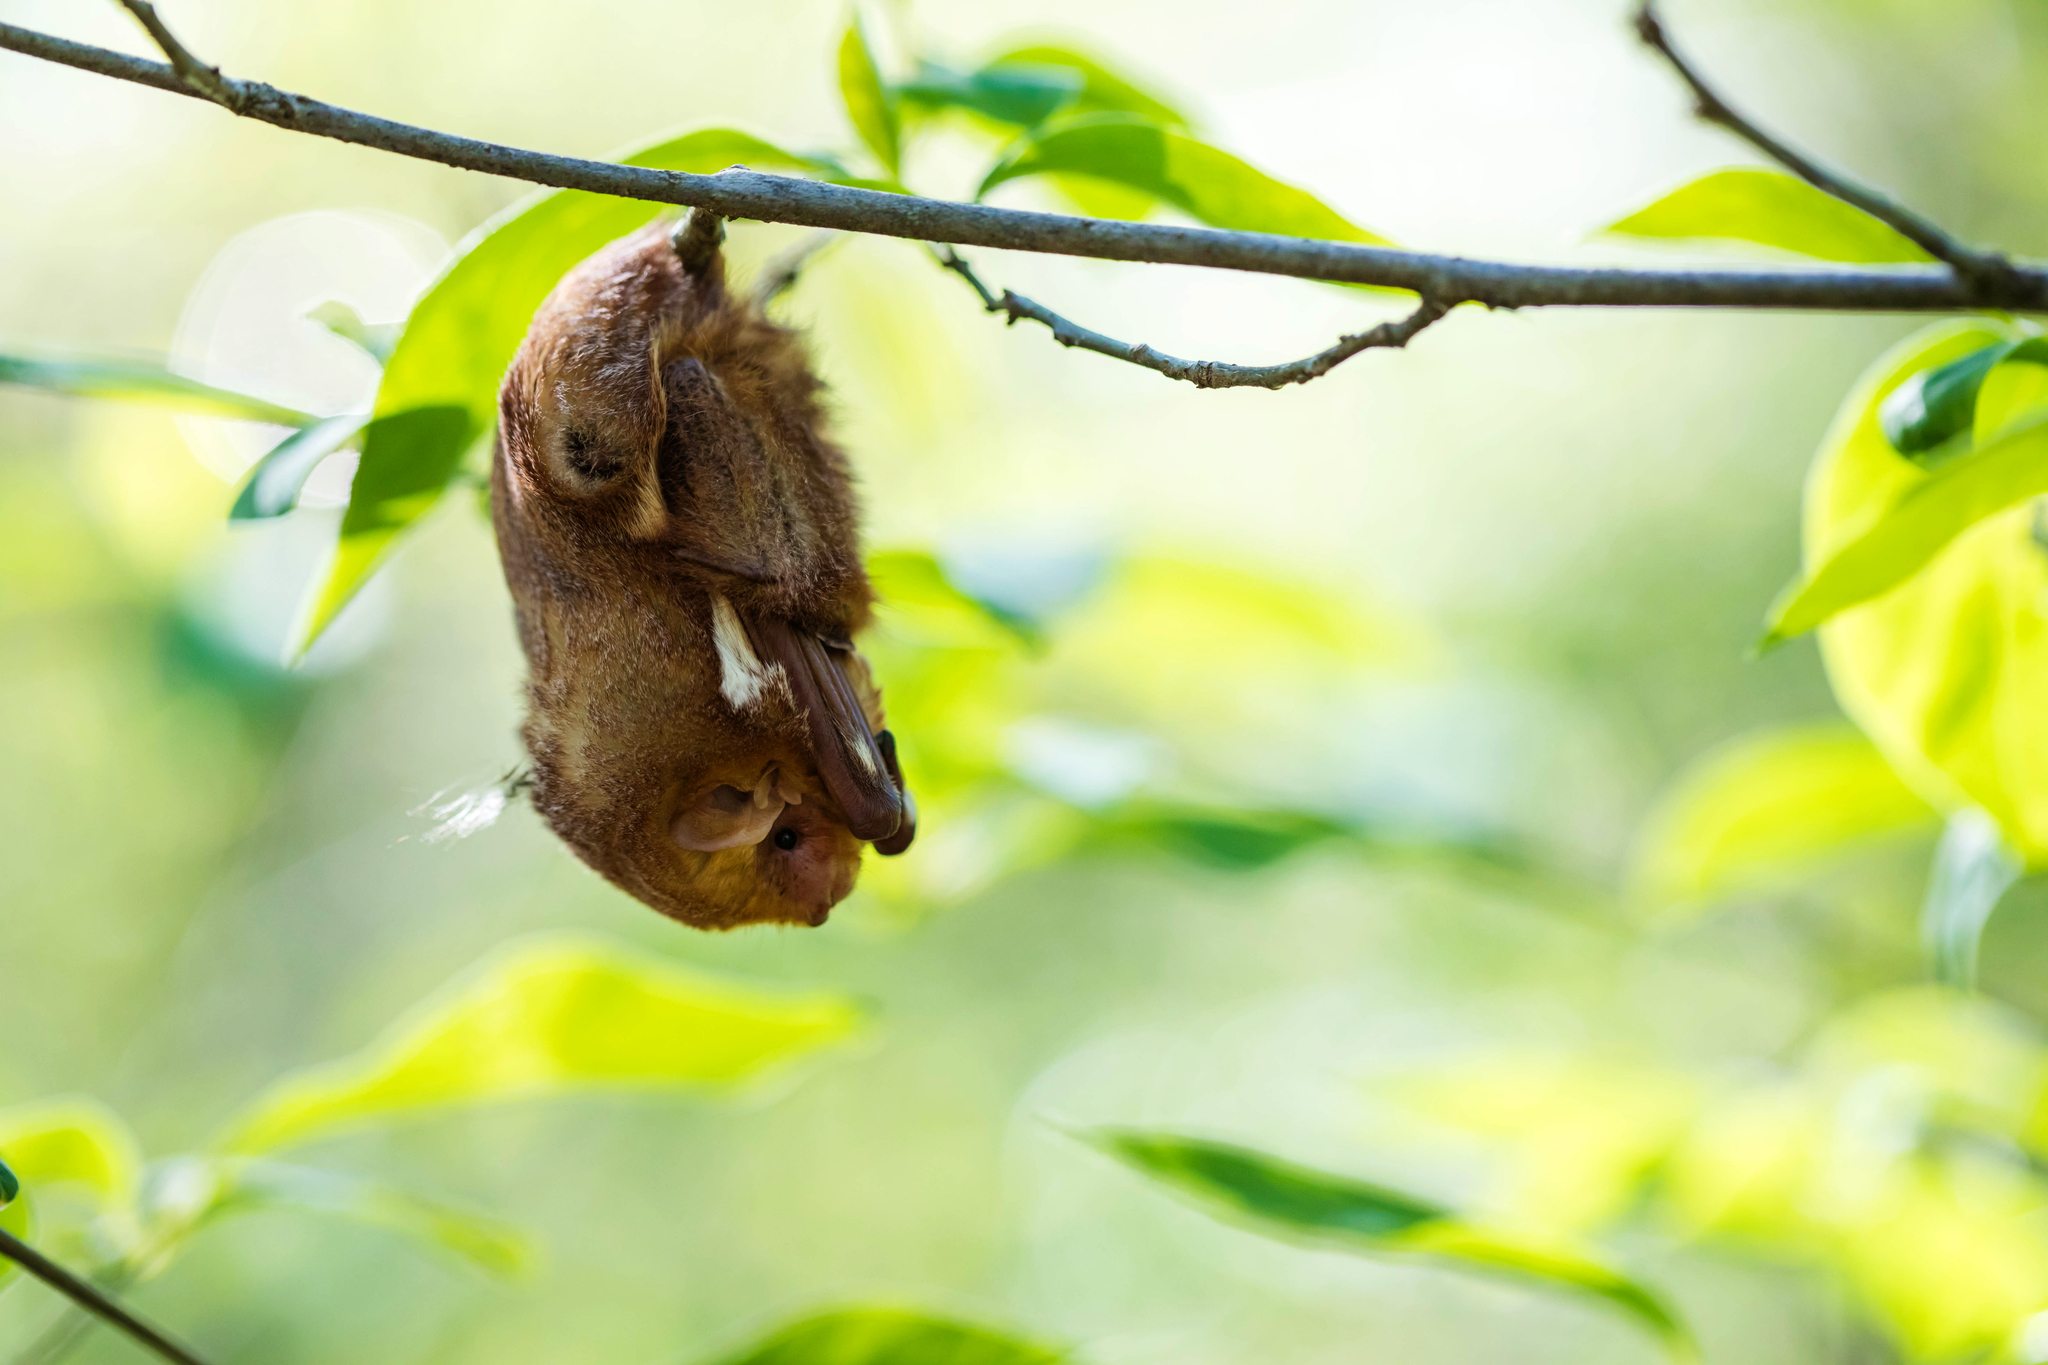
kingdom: Animalia
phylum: Chordata
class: Mammalia
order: Chiroptera
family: Vespertilionidae
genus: Lasiurus
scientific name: Lasiurus borealis
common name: Eastern red bat
